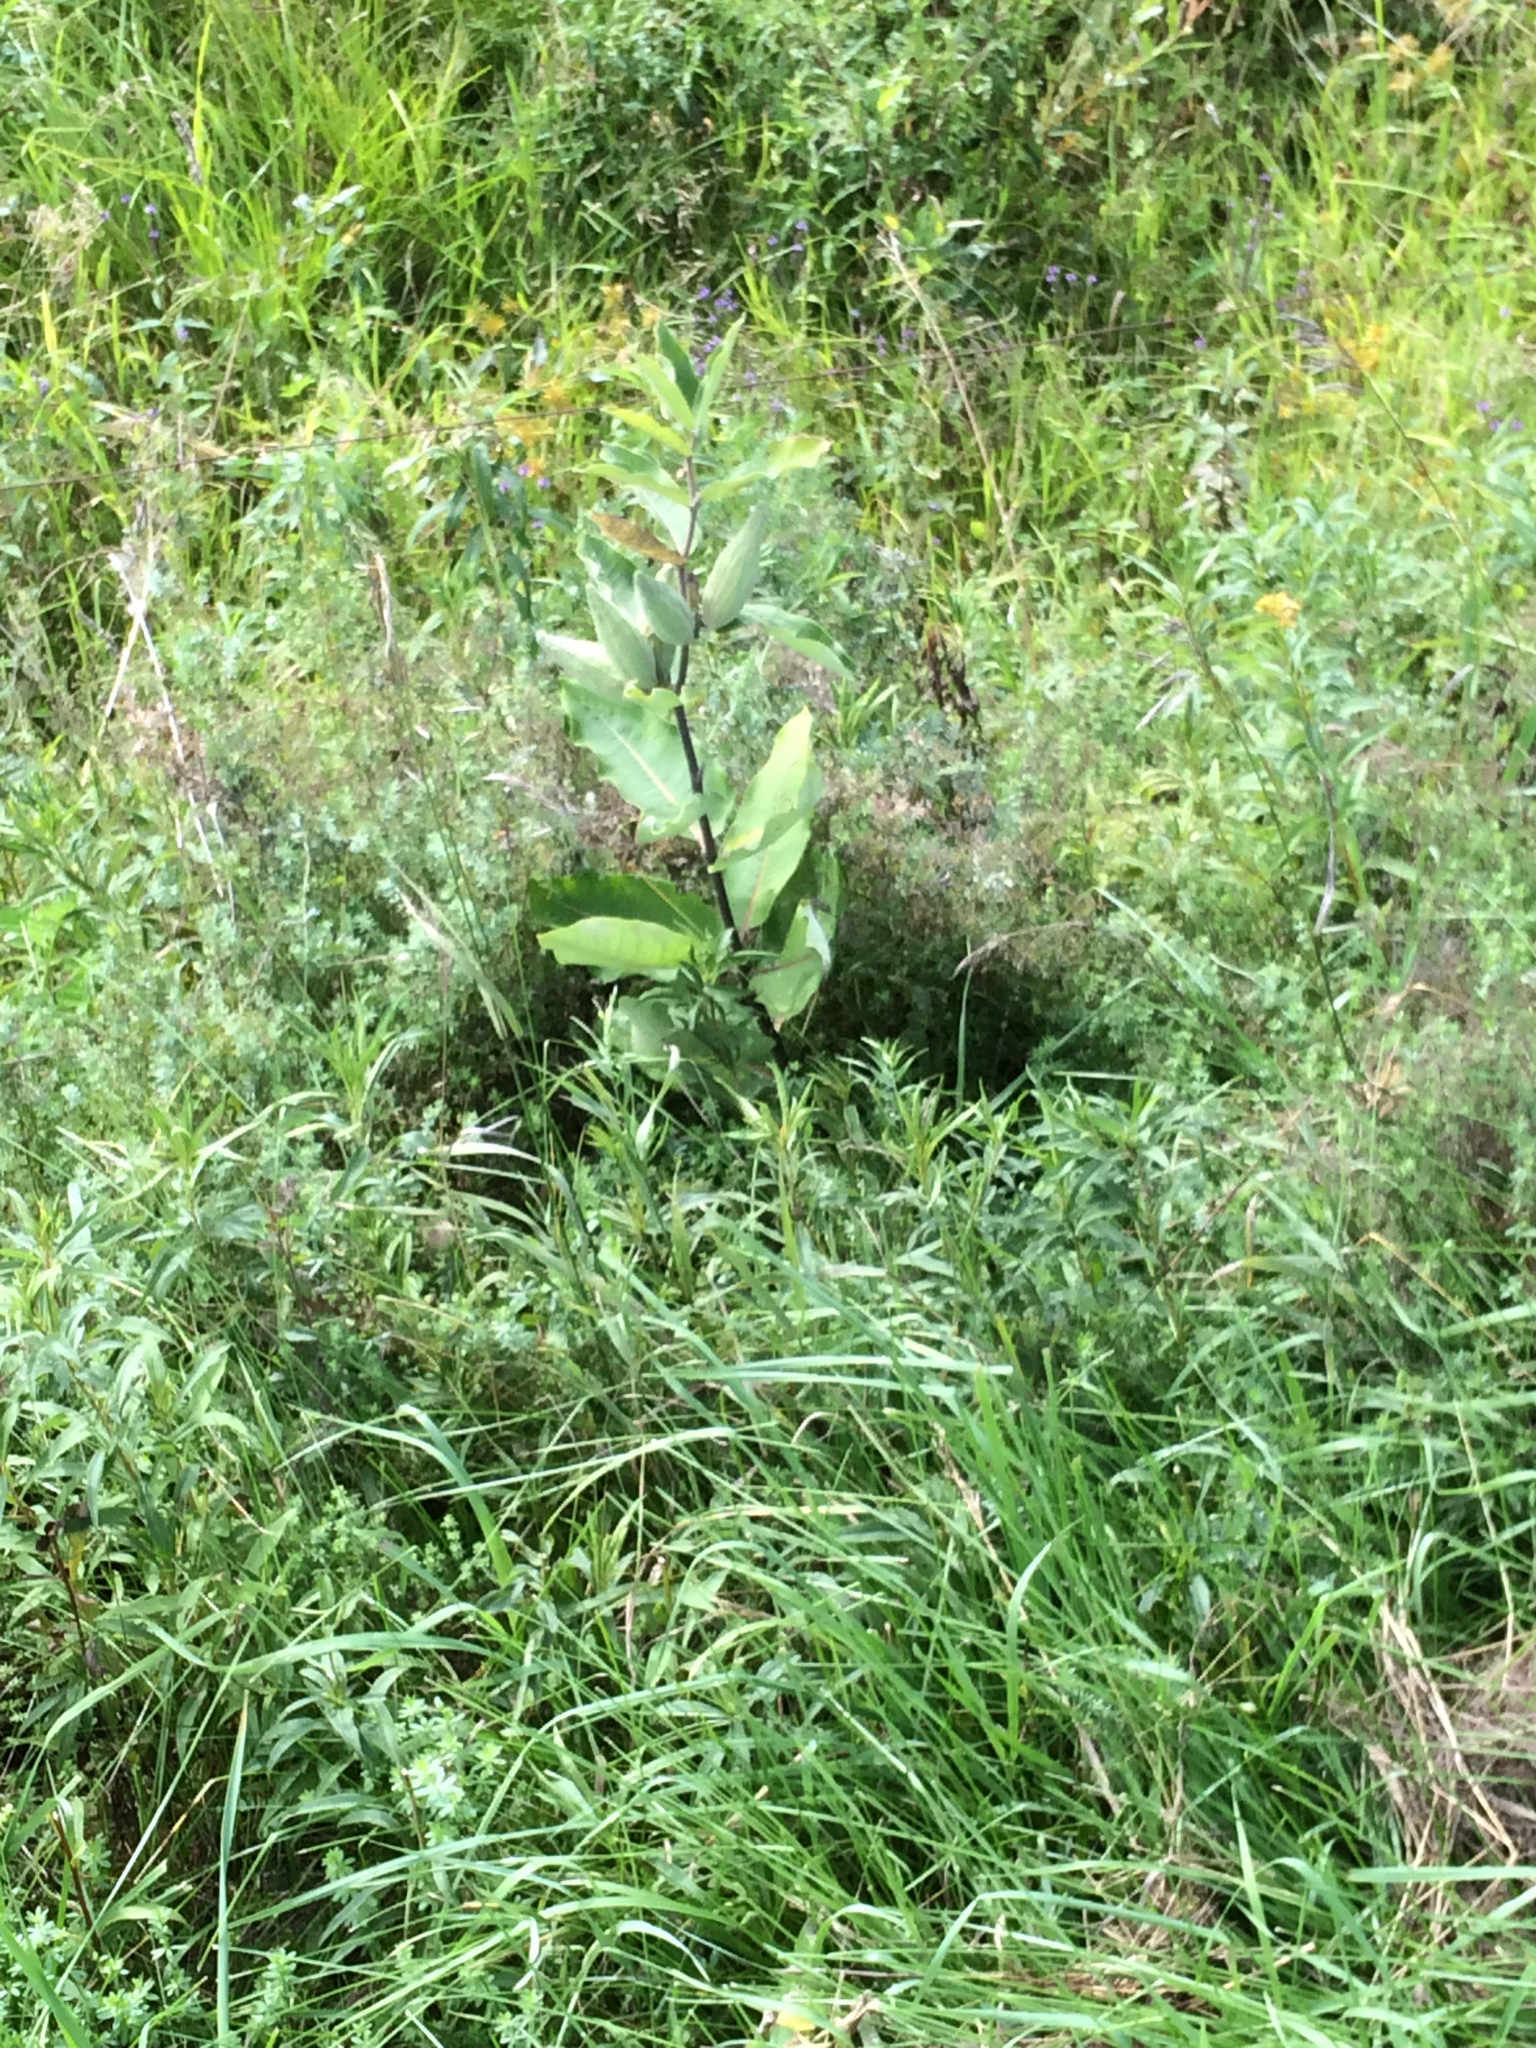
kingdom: Plantae
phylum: Tracheophyta
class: Magnoliopsida
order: Gentianales
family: Apocynaceae
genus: Asclepias
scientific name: Asclepias syriaca
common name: Common milkweed
